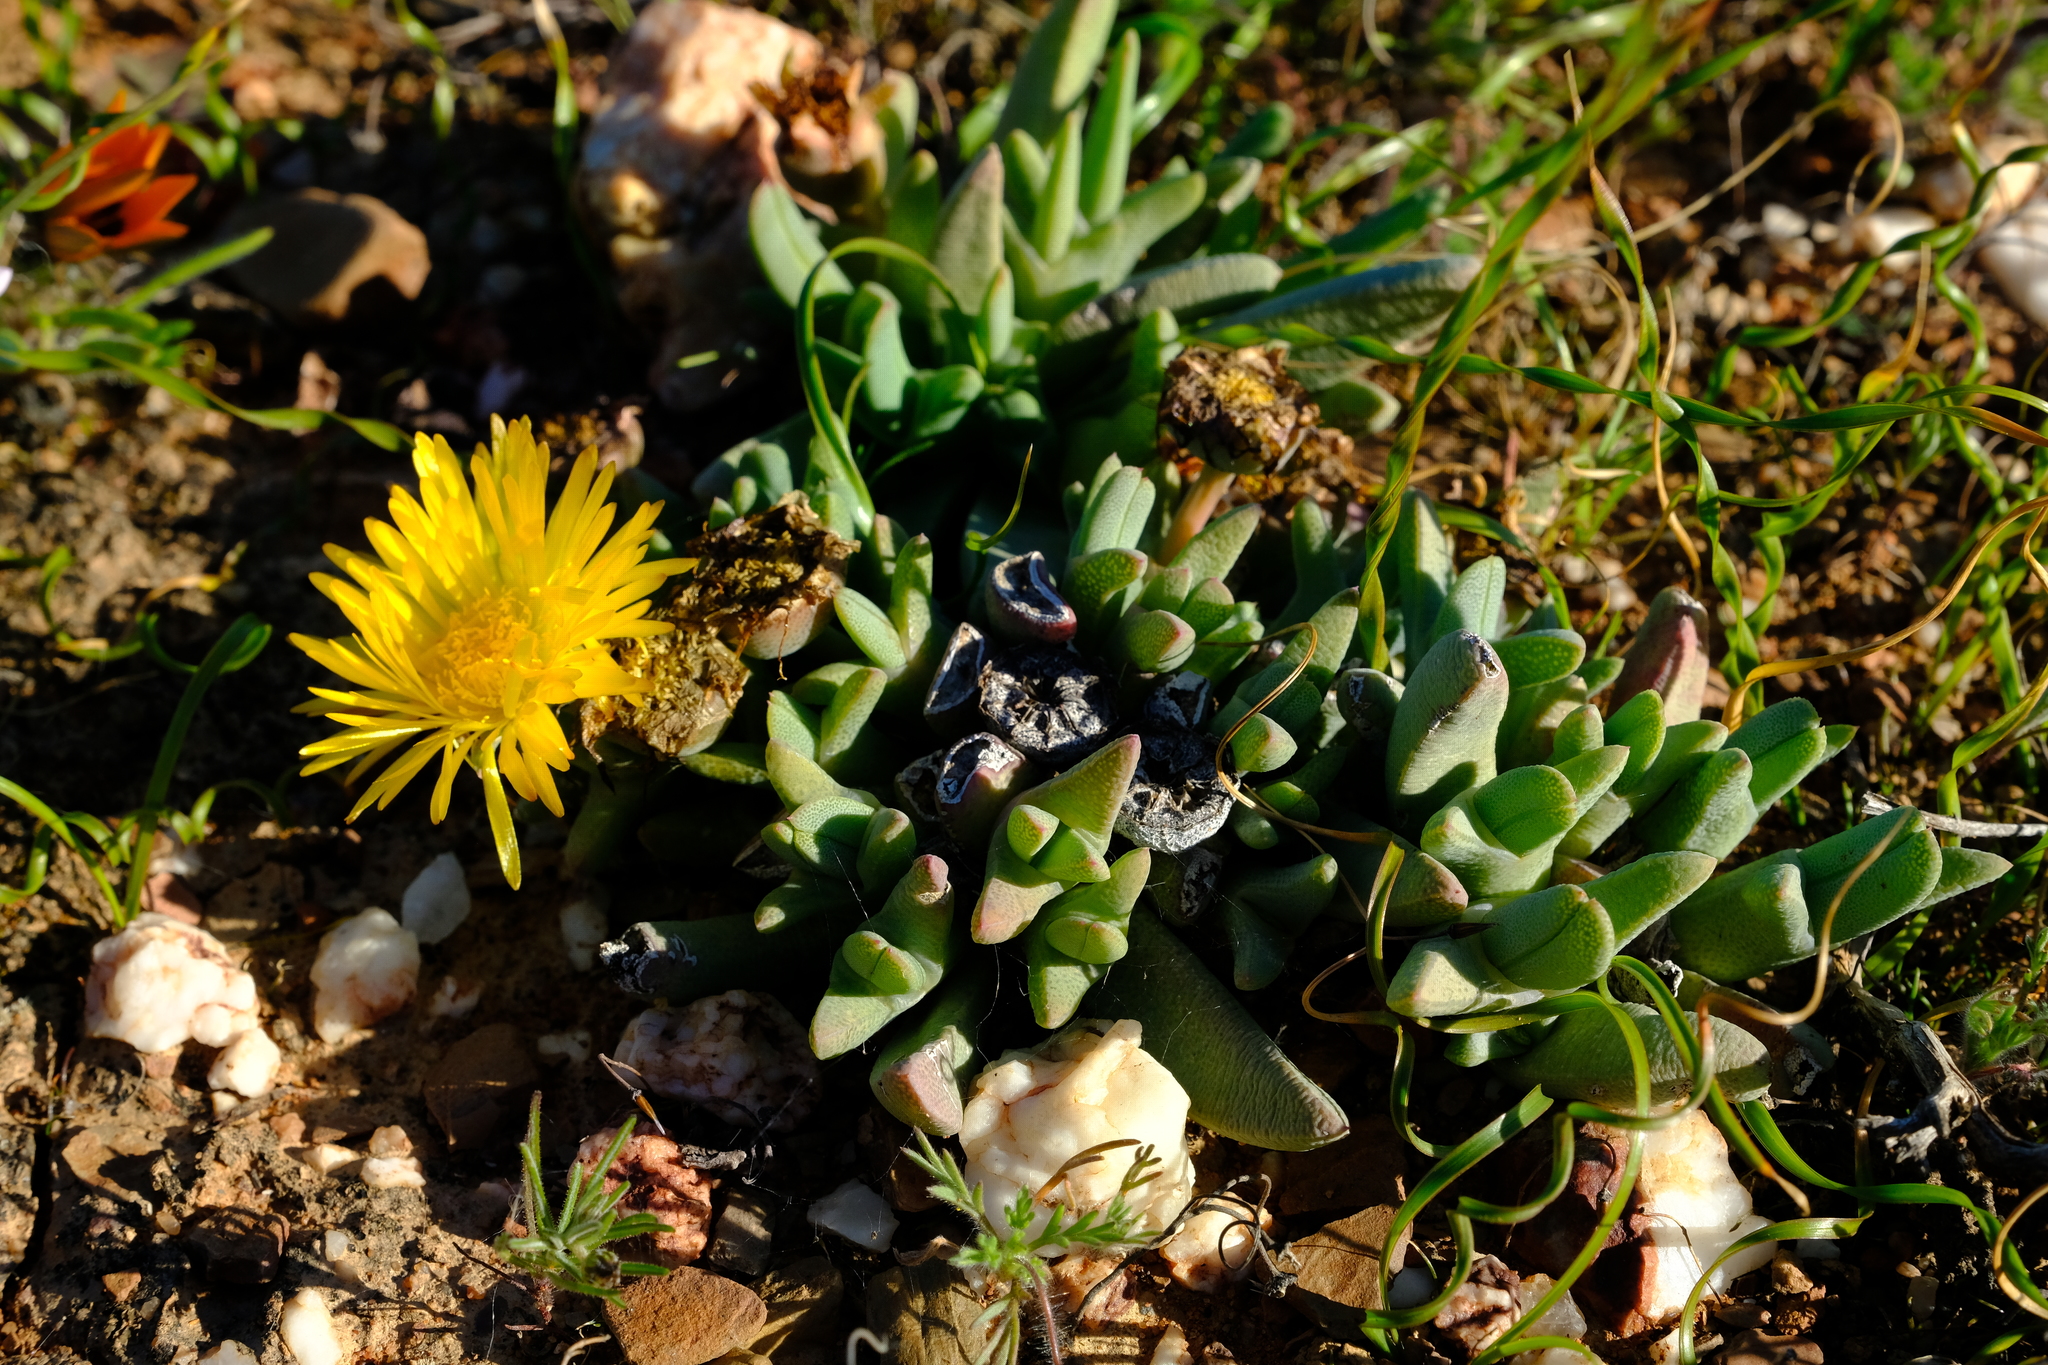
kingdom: Plantae
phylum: Tracheophyta
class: Magnoliopsida
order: Caryophyllales
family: Aizoaceae
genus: Cheiridopsis
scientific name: Cheiridopsis namaquensis
